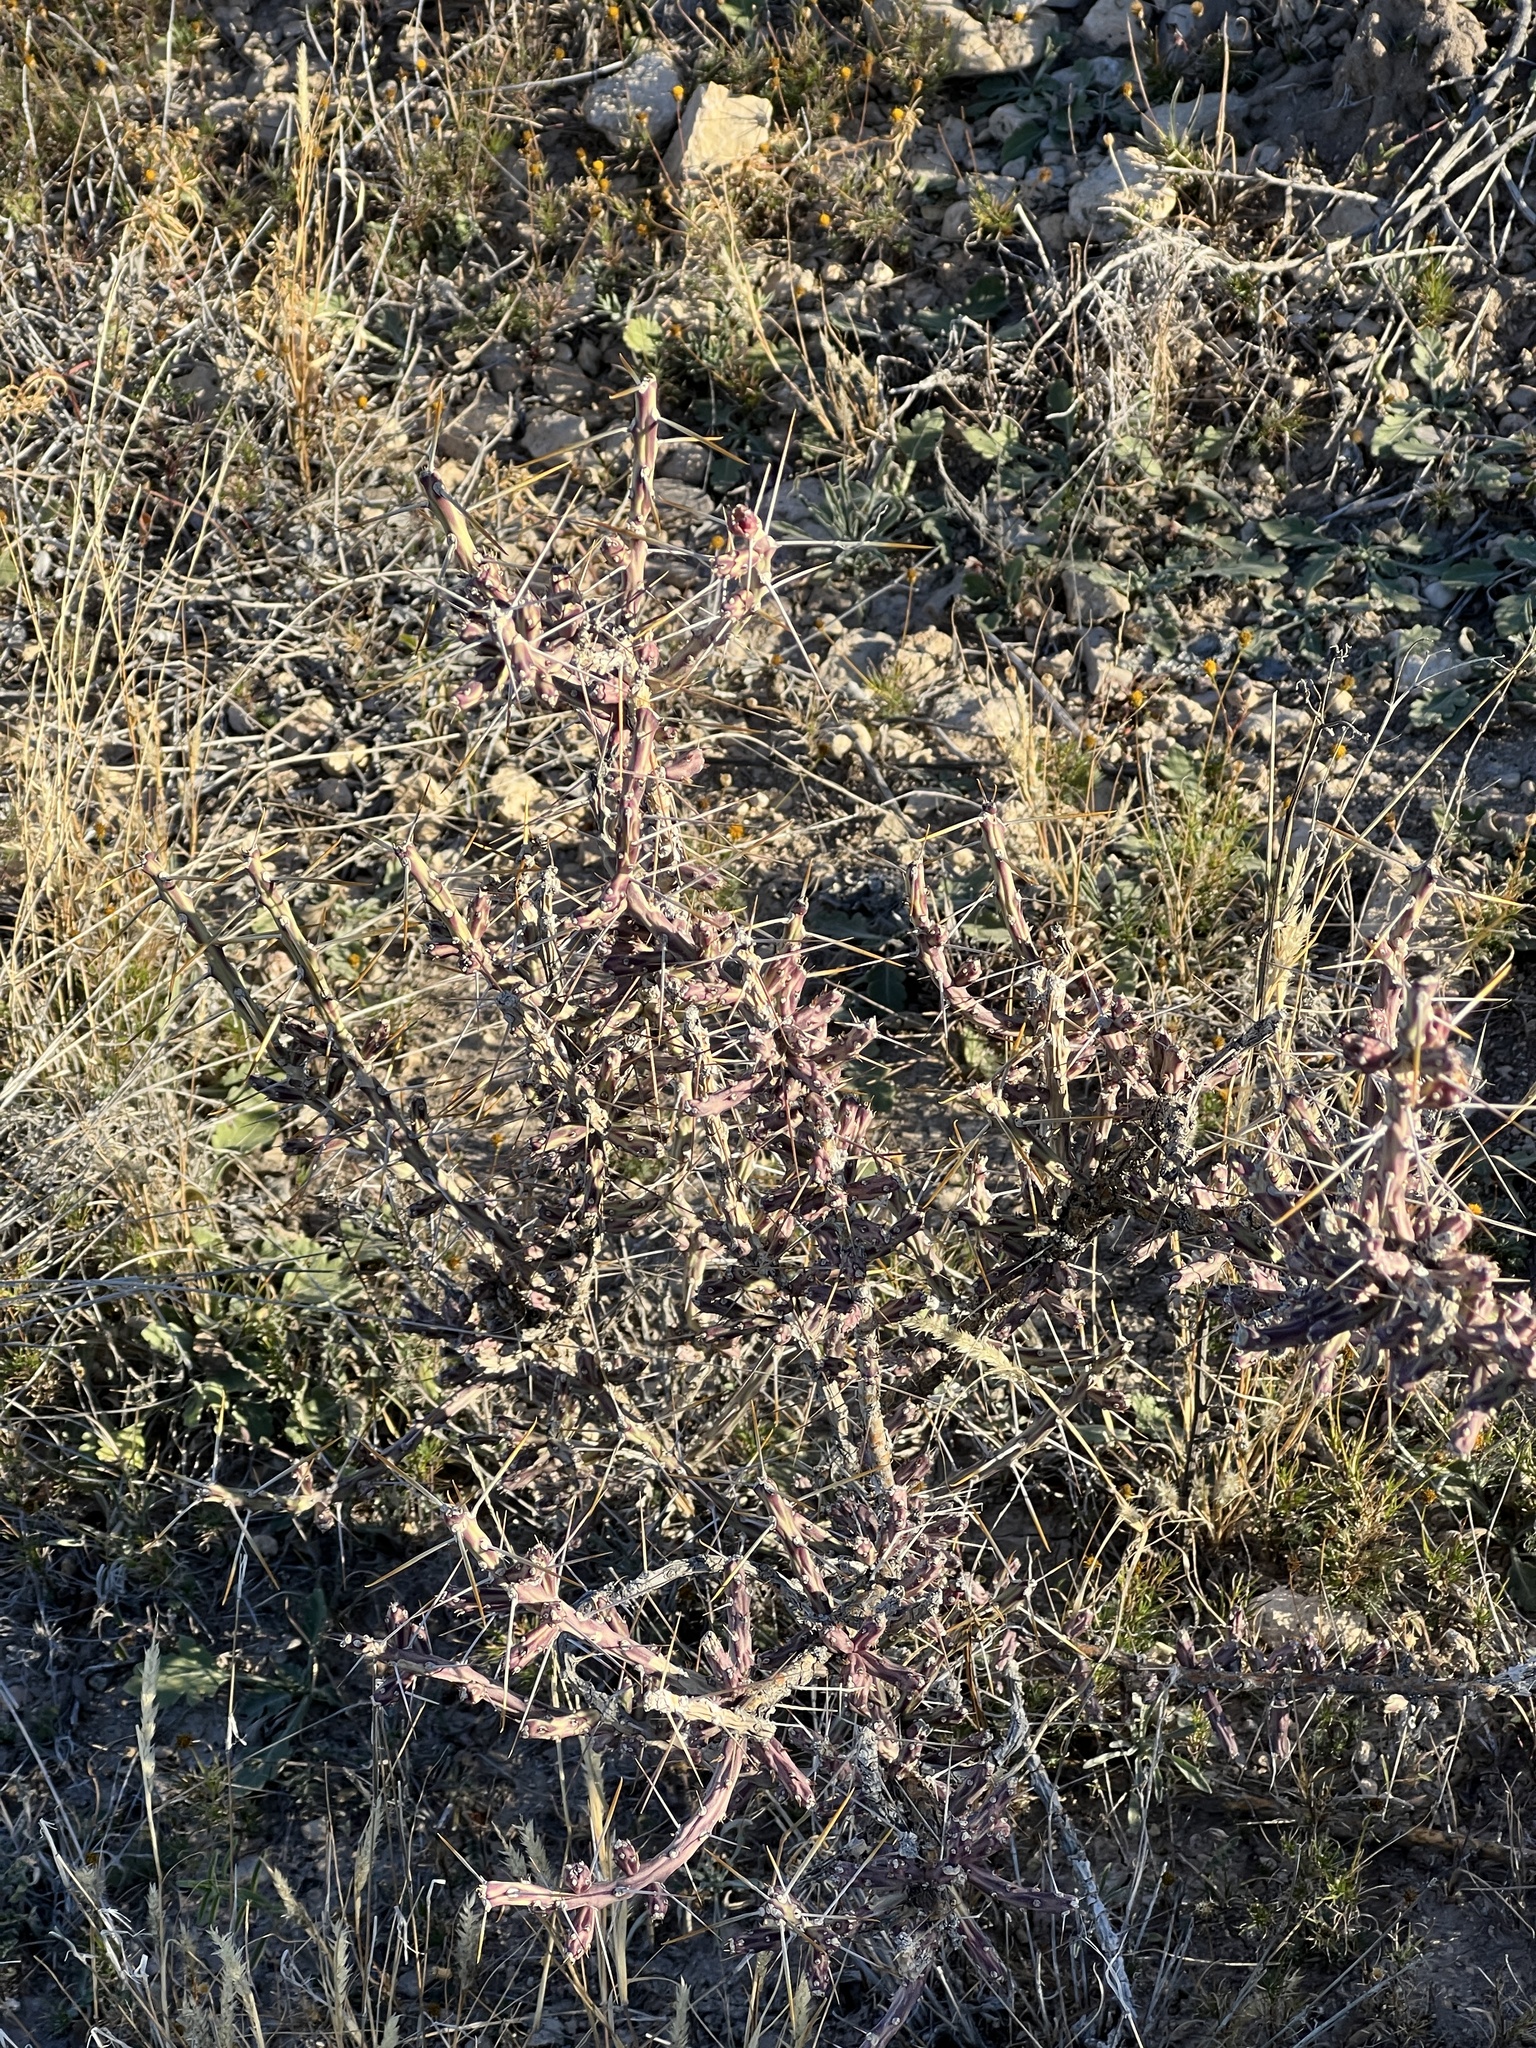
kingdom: Plantae
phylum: Tracheophyta
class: Magnoliopsida
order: Caryophyllales
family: Cactaceae
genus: Cylindropuntia
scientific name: Cylindropuntia leptocaulis
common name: Christmas cactus
